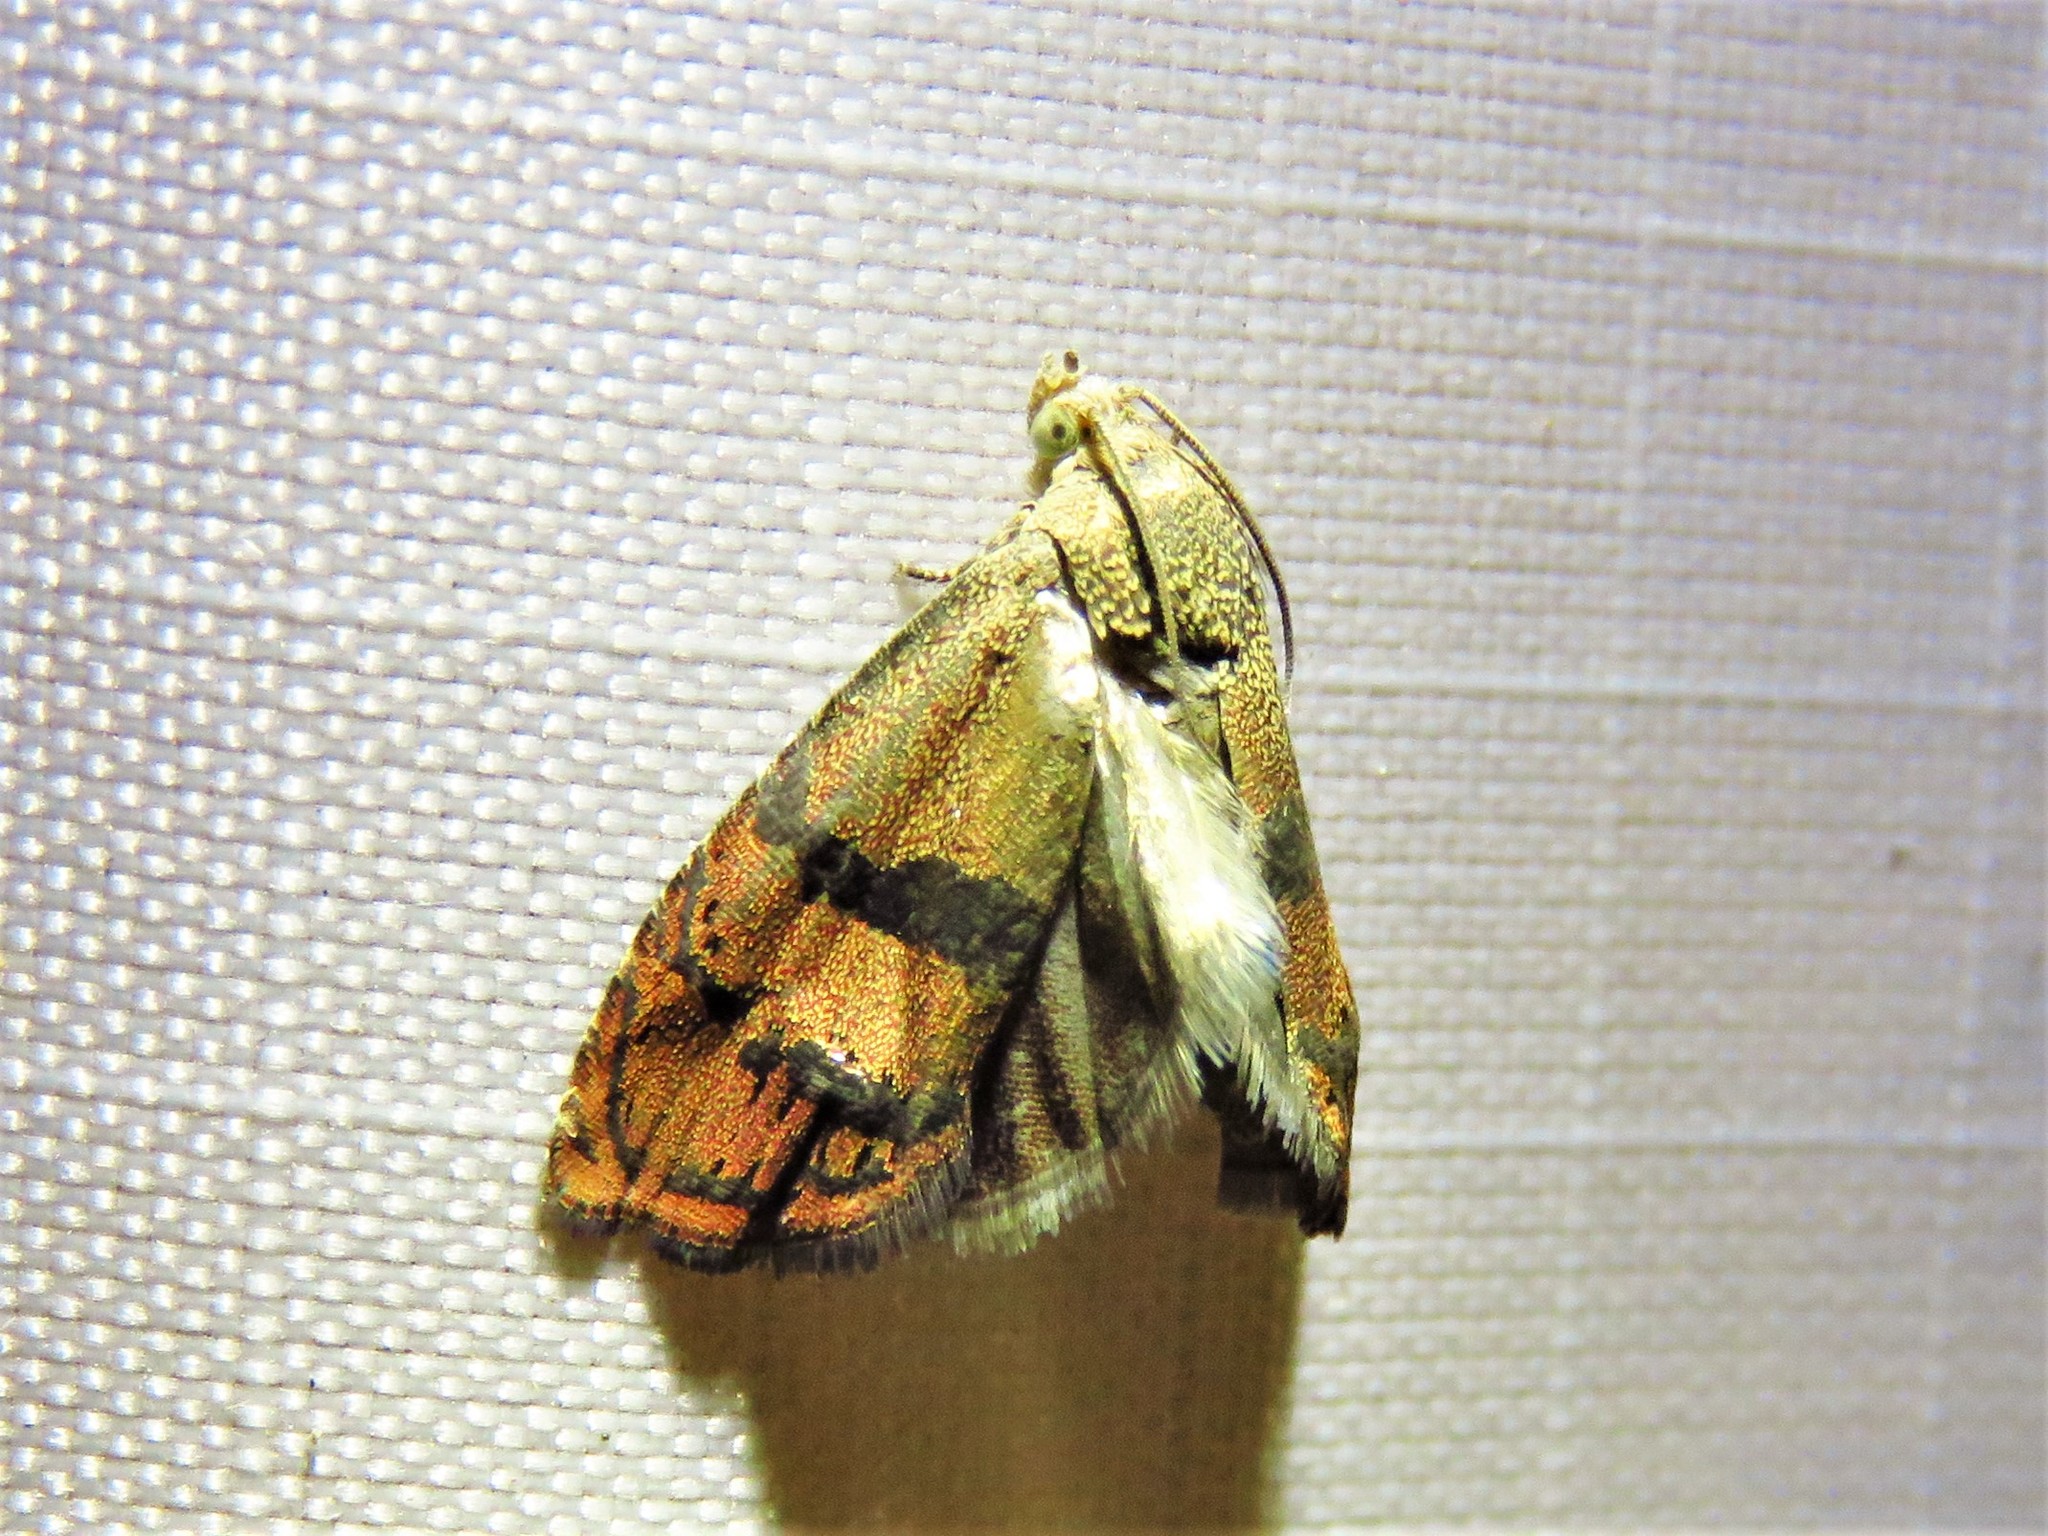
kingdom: Animalia
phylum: Arthropoda
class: Insecta
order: Lepidoptera
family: Tortricidae
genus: Cydia
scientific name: Cydia latiferreana
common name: Filbertworm moth
